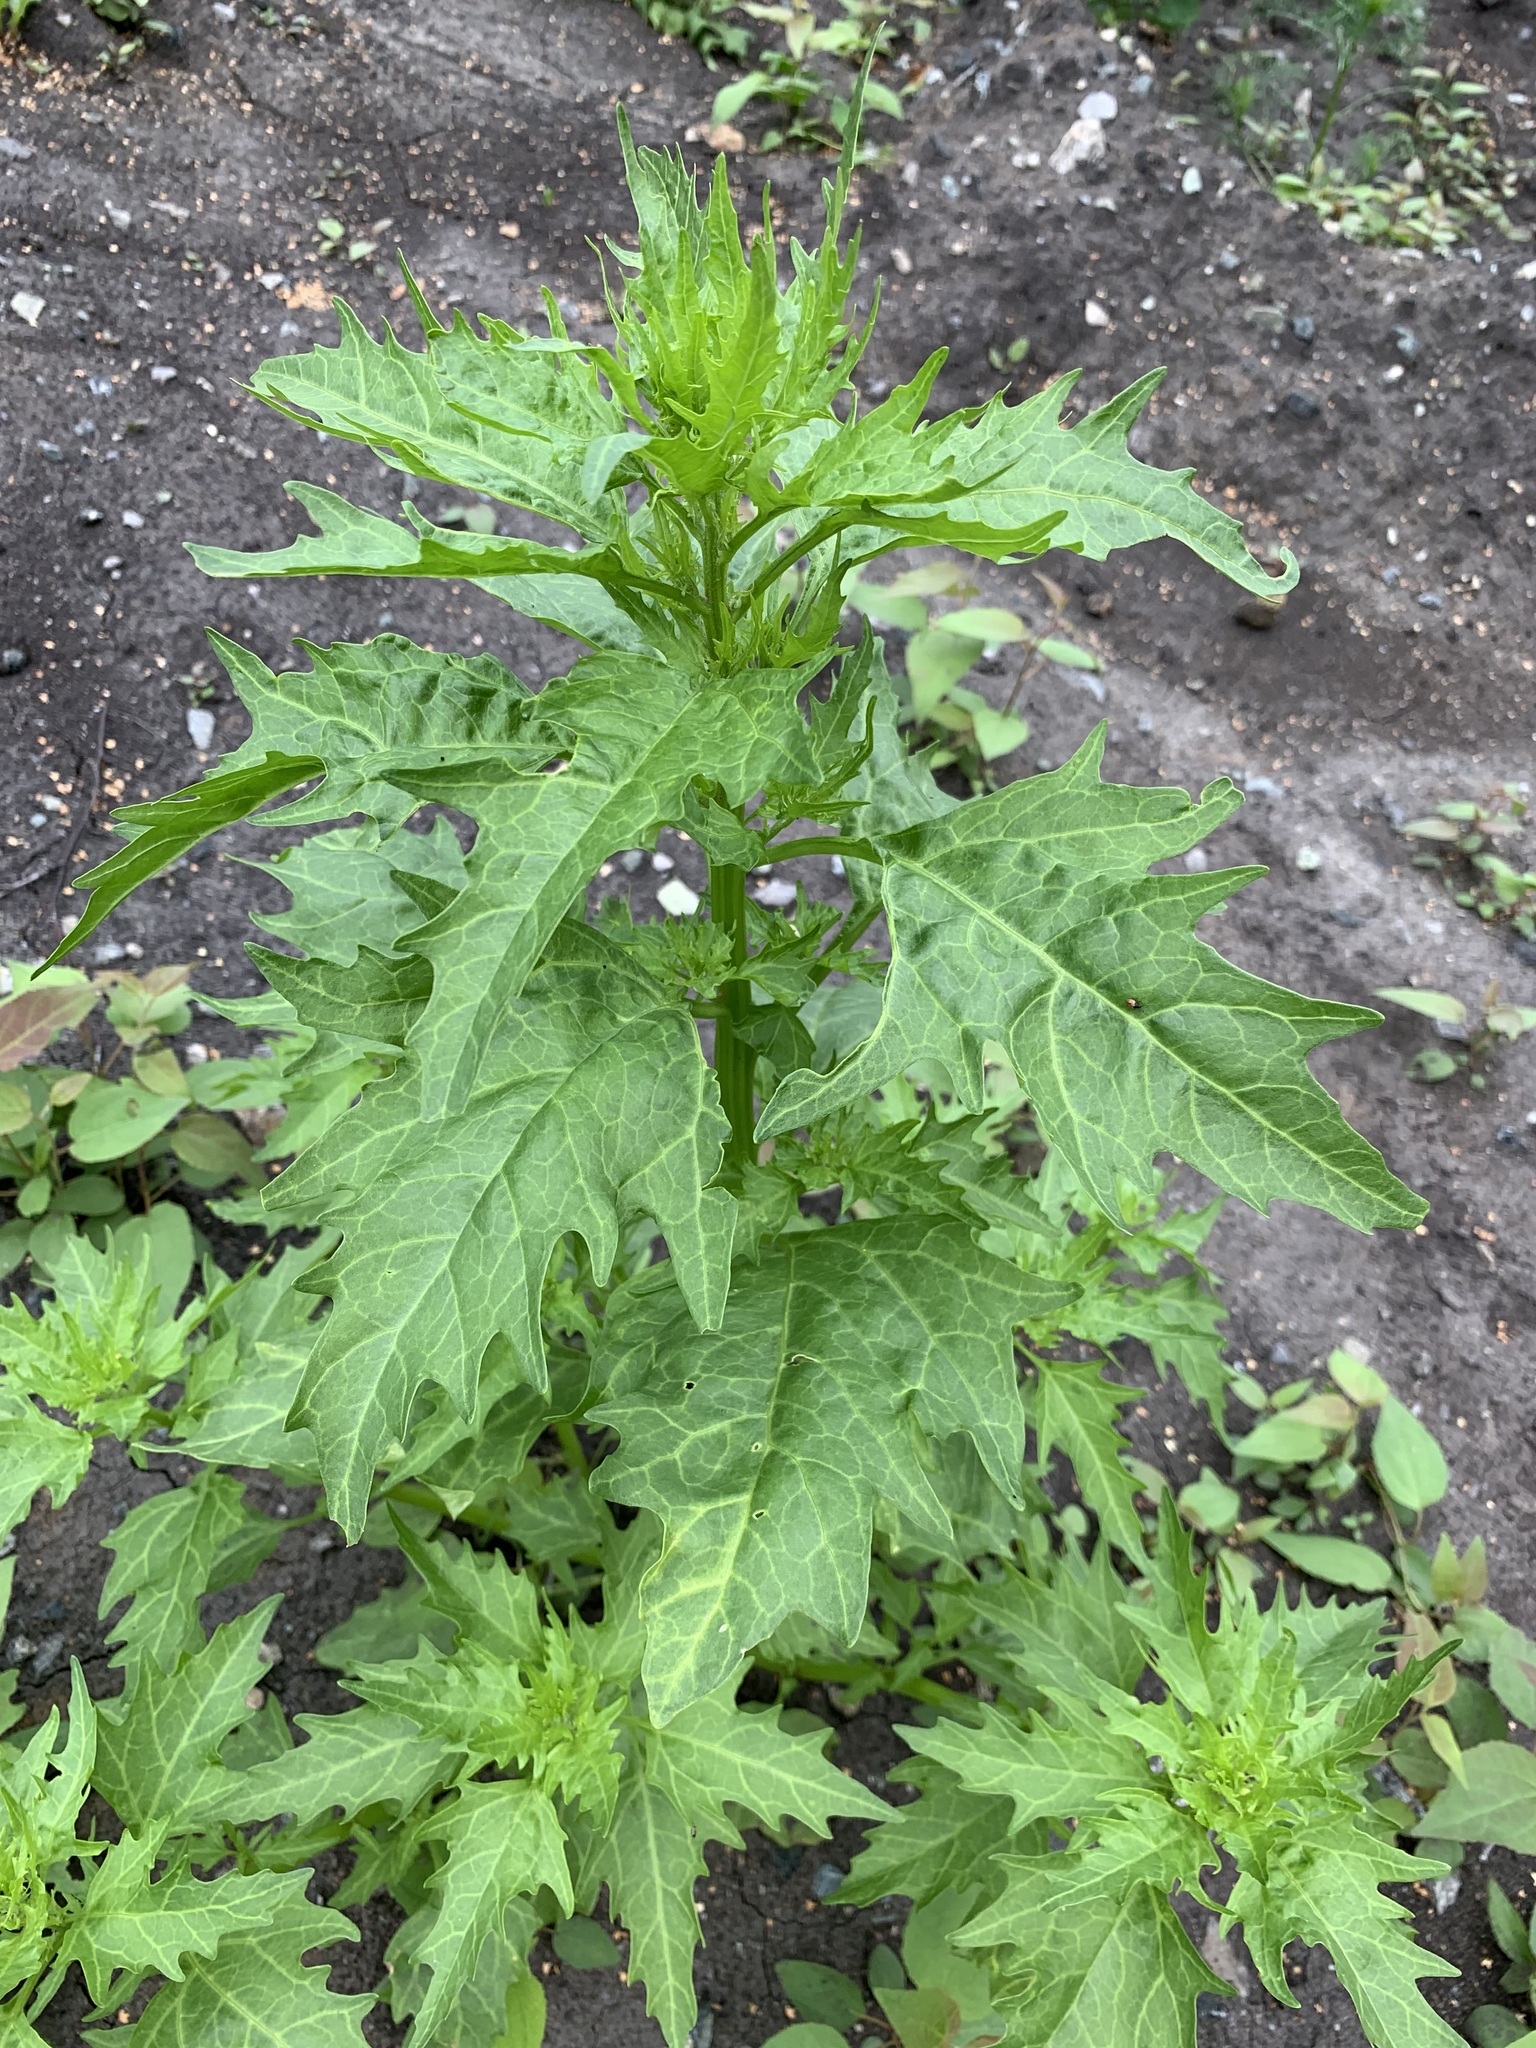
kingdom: Plantae
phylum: Tracheophyta
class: Magnoliopsida
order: Caryophyllales
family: Amaranthaceae
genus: Oxybasis
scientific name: Oxybasis rubra
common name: Red goosefoot
